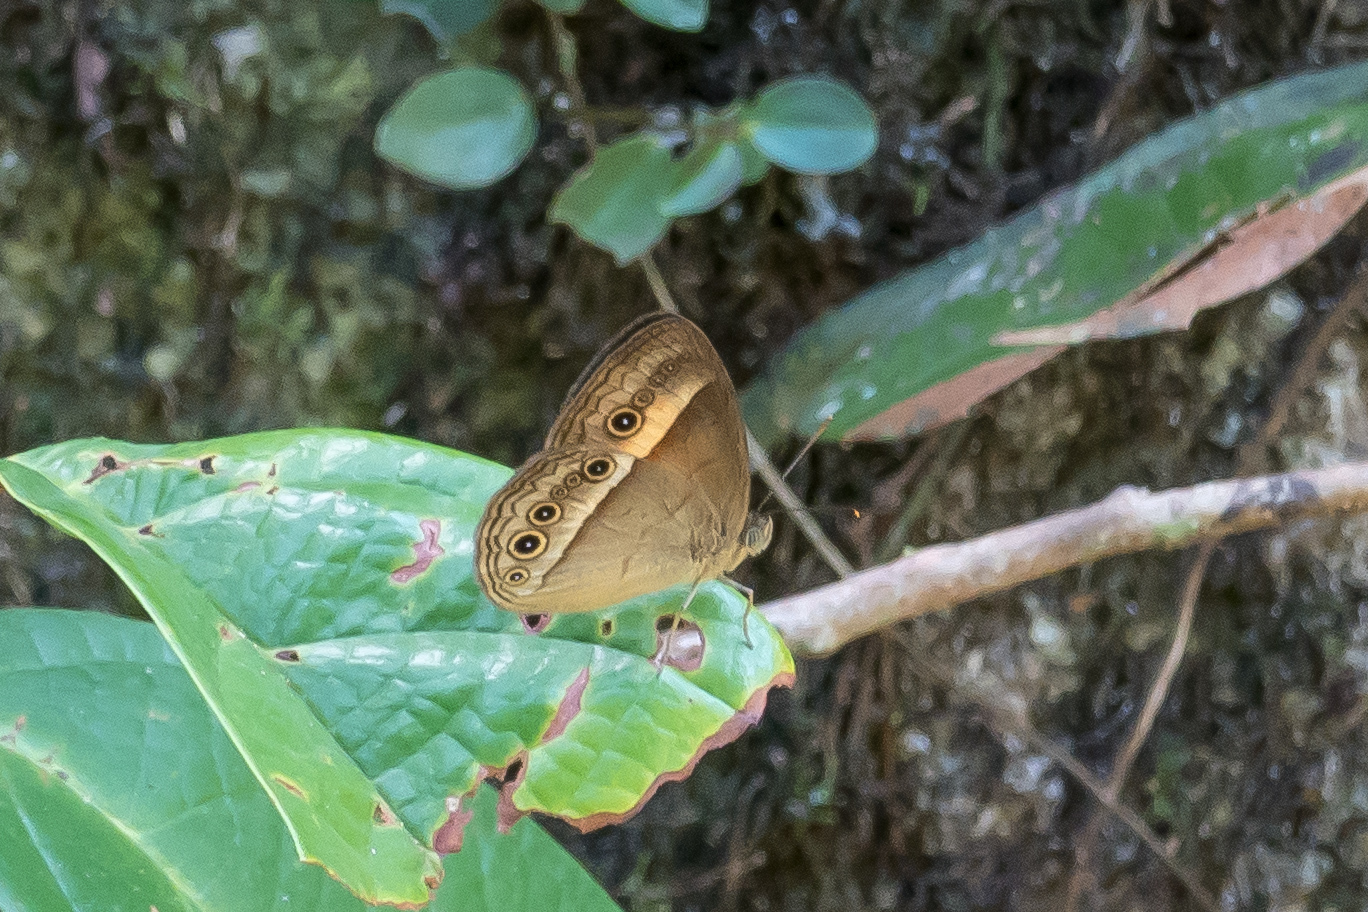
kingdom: Animalia
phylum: Arthropoda
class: Insecta
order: Lepidoptera
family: Nymphalidae
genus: Mycalesis
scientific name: Mycalesis terminus
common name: Orange bushbrown
